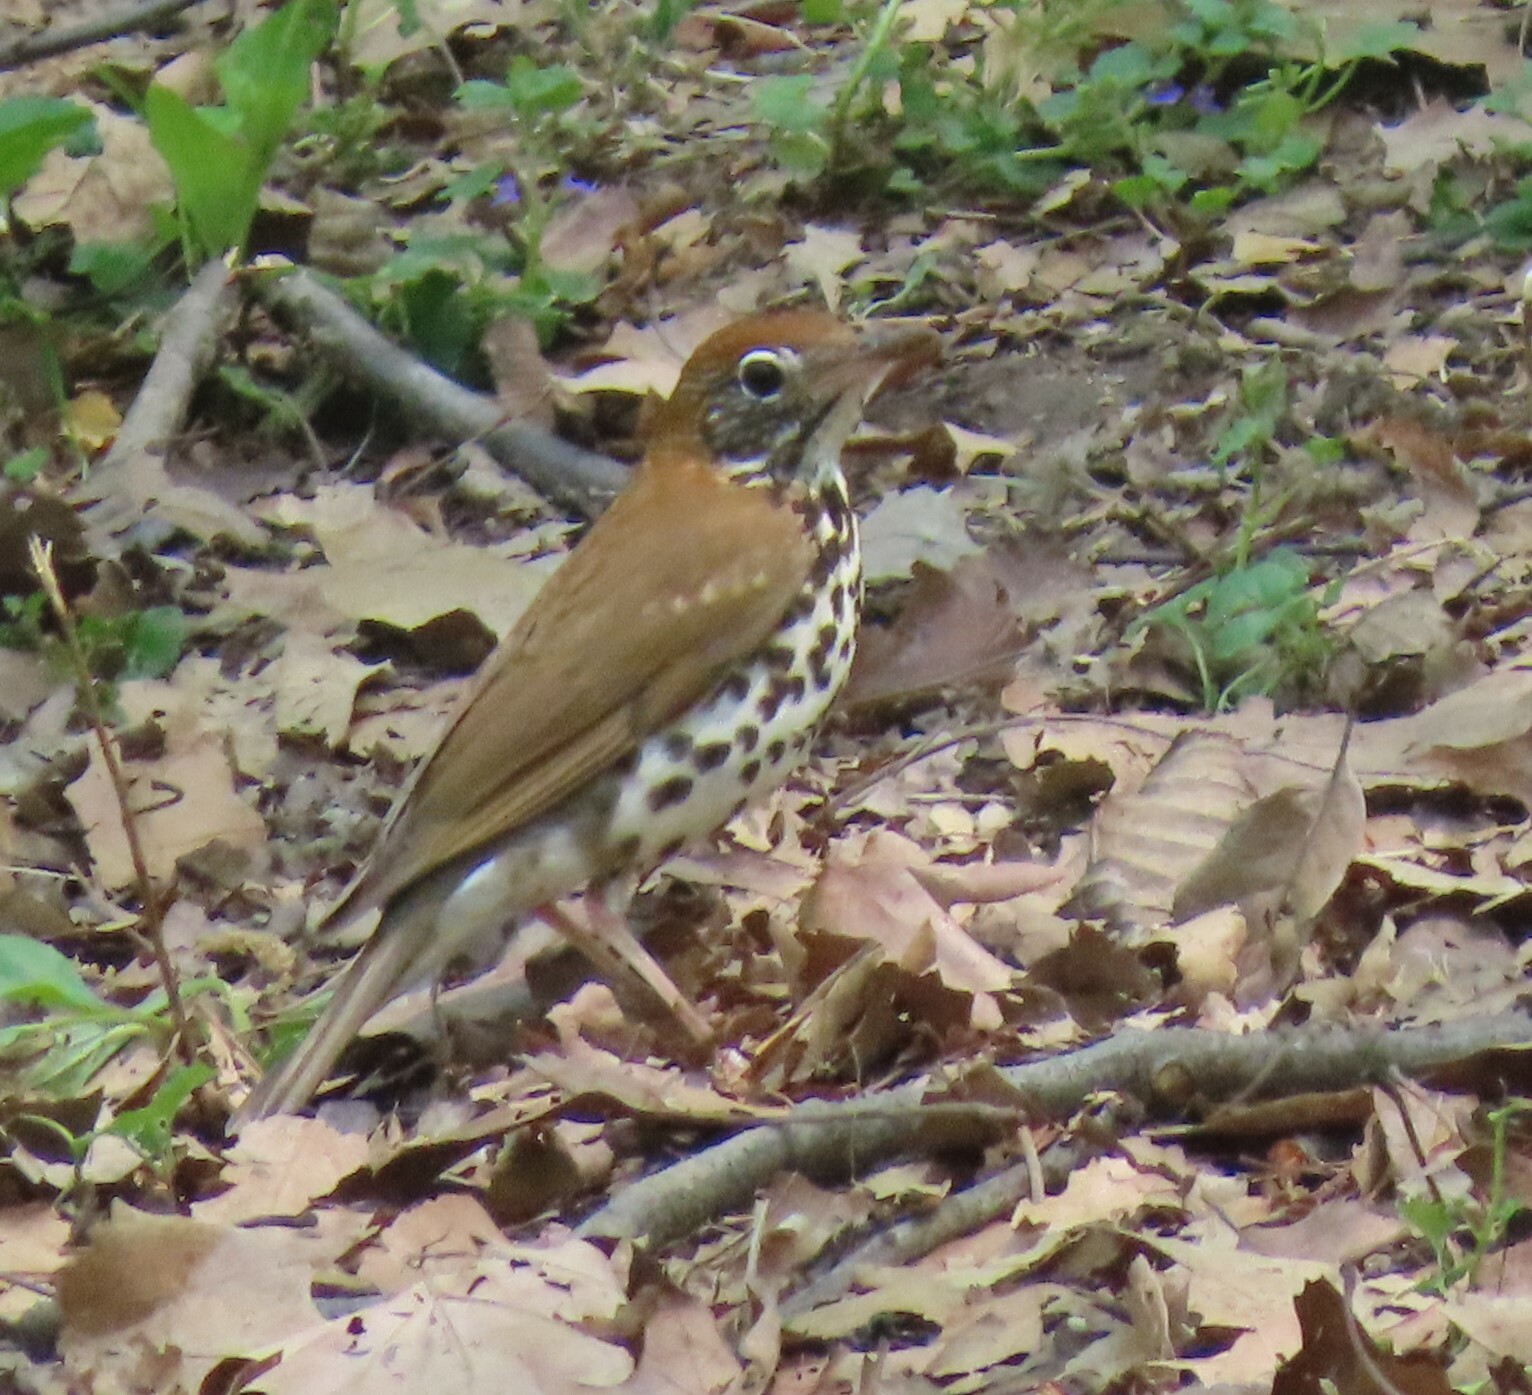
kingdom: Animalia
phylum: Chordata
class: Aves
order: Passeriformes
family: Turdidae
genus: Hylocichla
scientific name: Hylocichla mustelina
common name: Wood thrush
